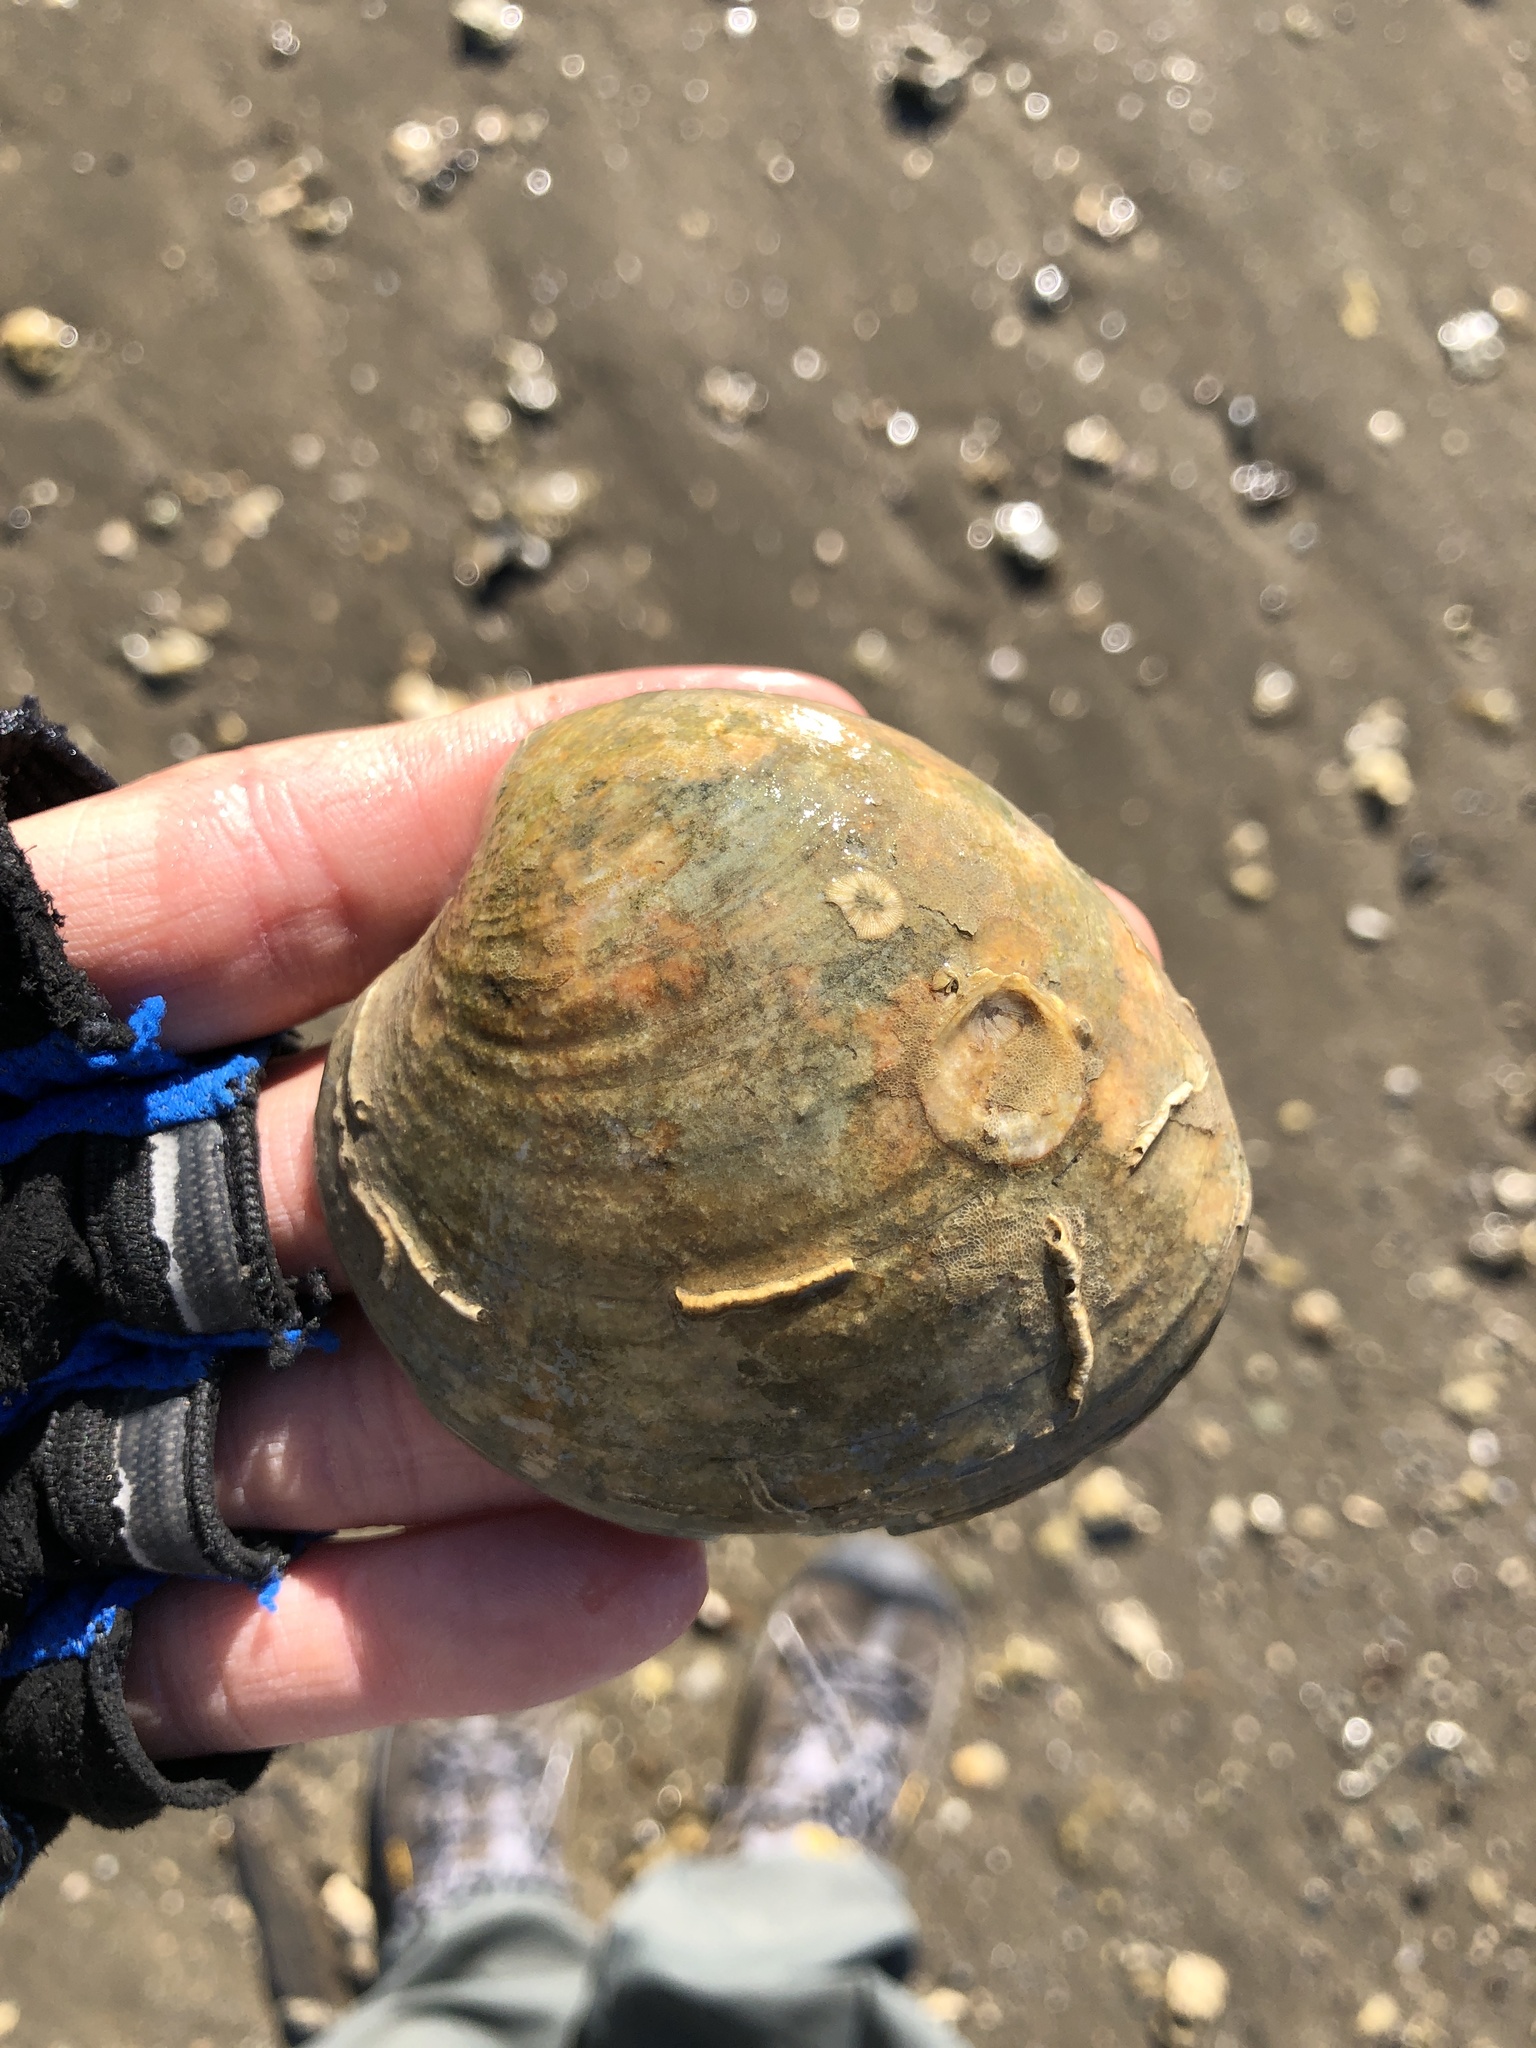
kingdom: Animalia
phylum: Mollusca
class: Bivalvia
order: Venerida
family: Veneridae
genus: Mercenaria
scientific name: Mercenaria campechiensis
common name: Südliche quahog-muschel
